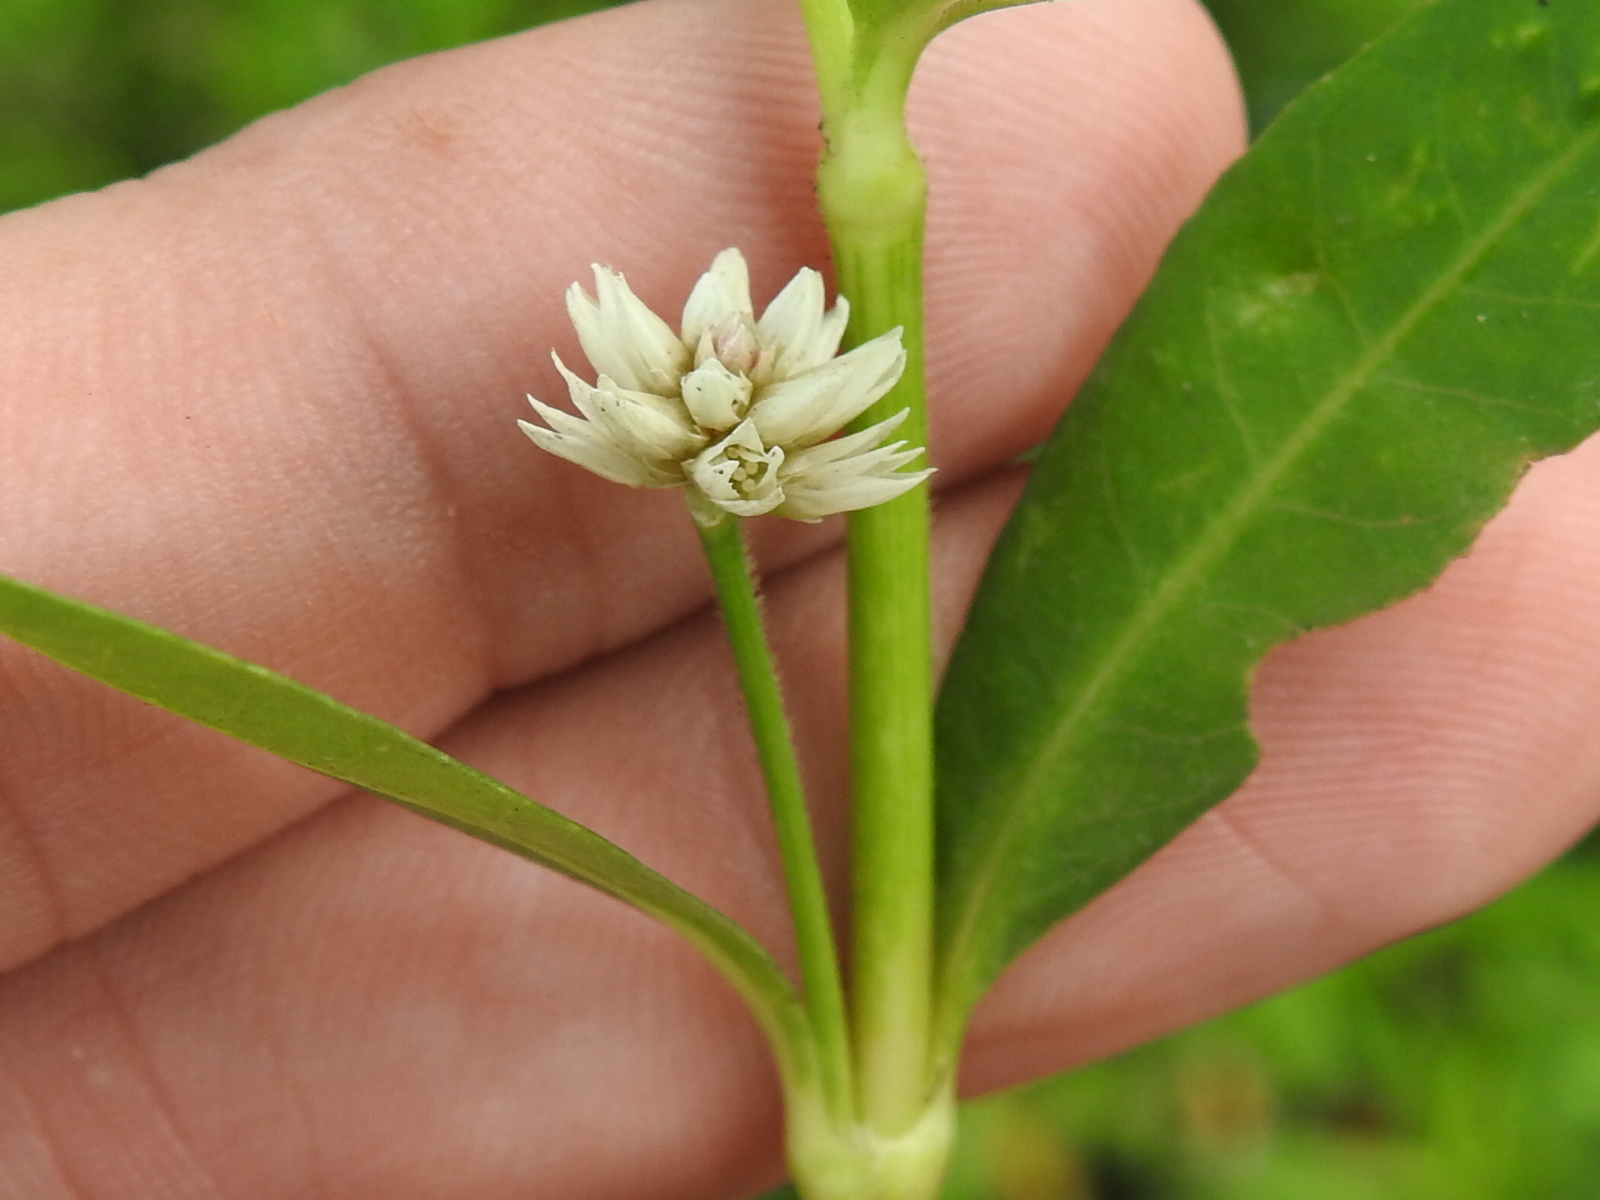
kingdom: Plantae
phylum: Tracheophyta
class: Magnoliopsida
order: Caryophyllales
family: Amaranthaceae
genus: Alternanthera
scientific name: Alternanthera philoxeroides
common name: Alligatorweed
